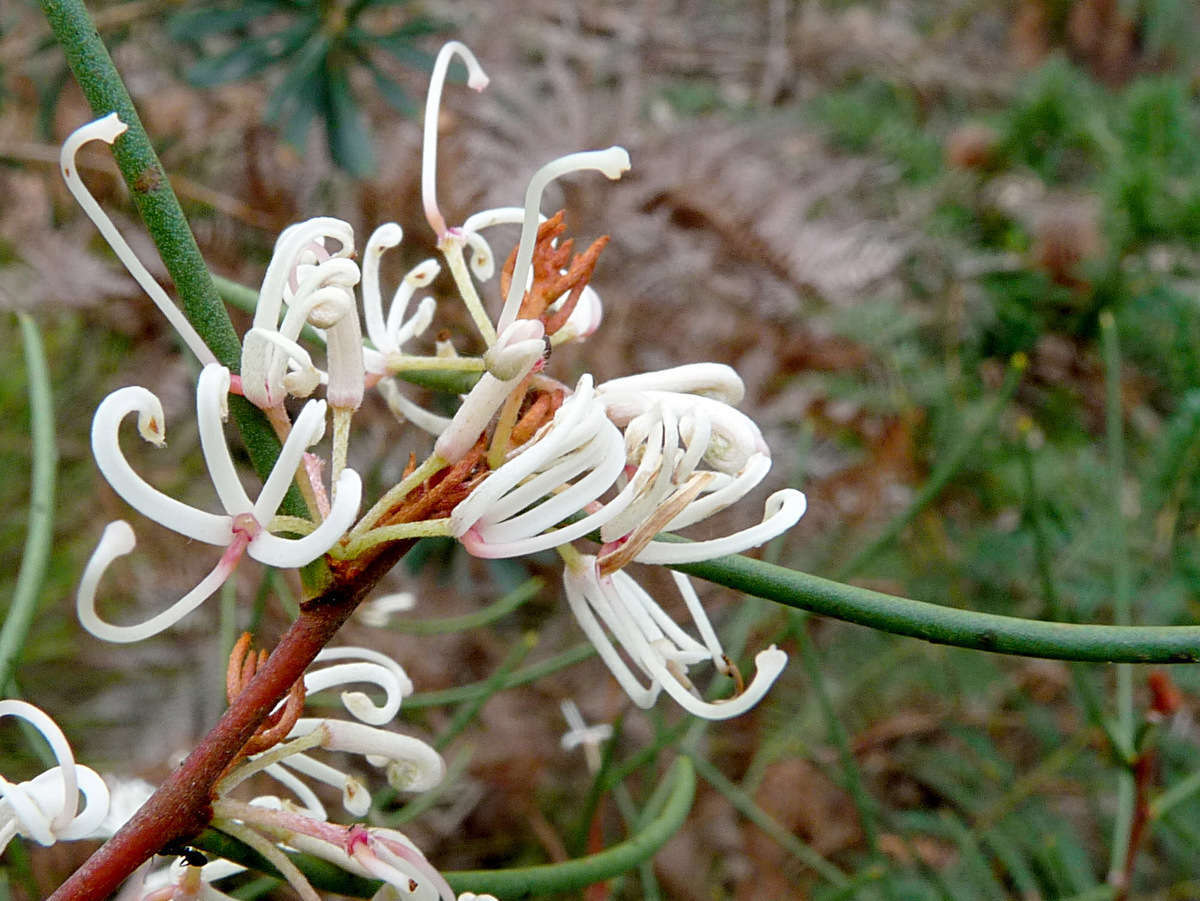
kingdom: Plantae
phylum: Tracheophyta
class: Magnoliopsida
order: Proteales
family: Proteaceae
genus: Hakea
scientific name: Hakea rostrata
